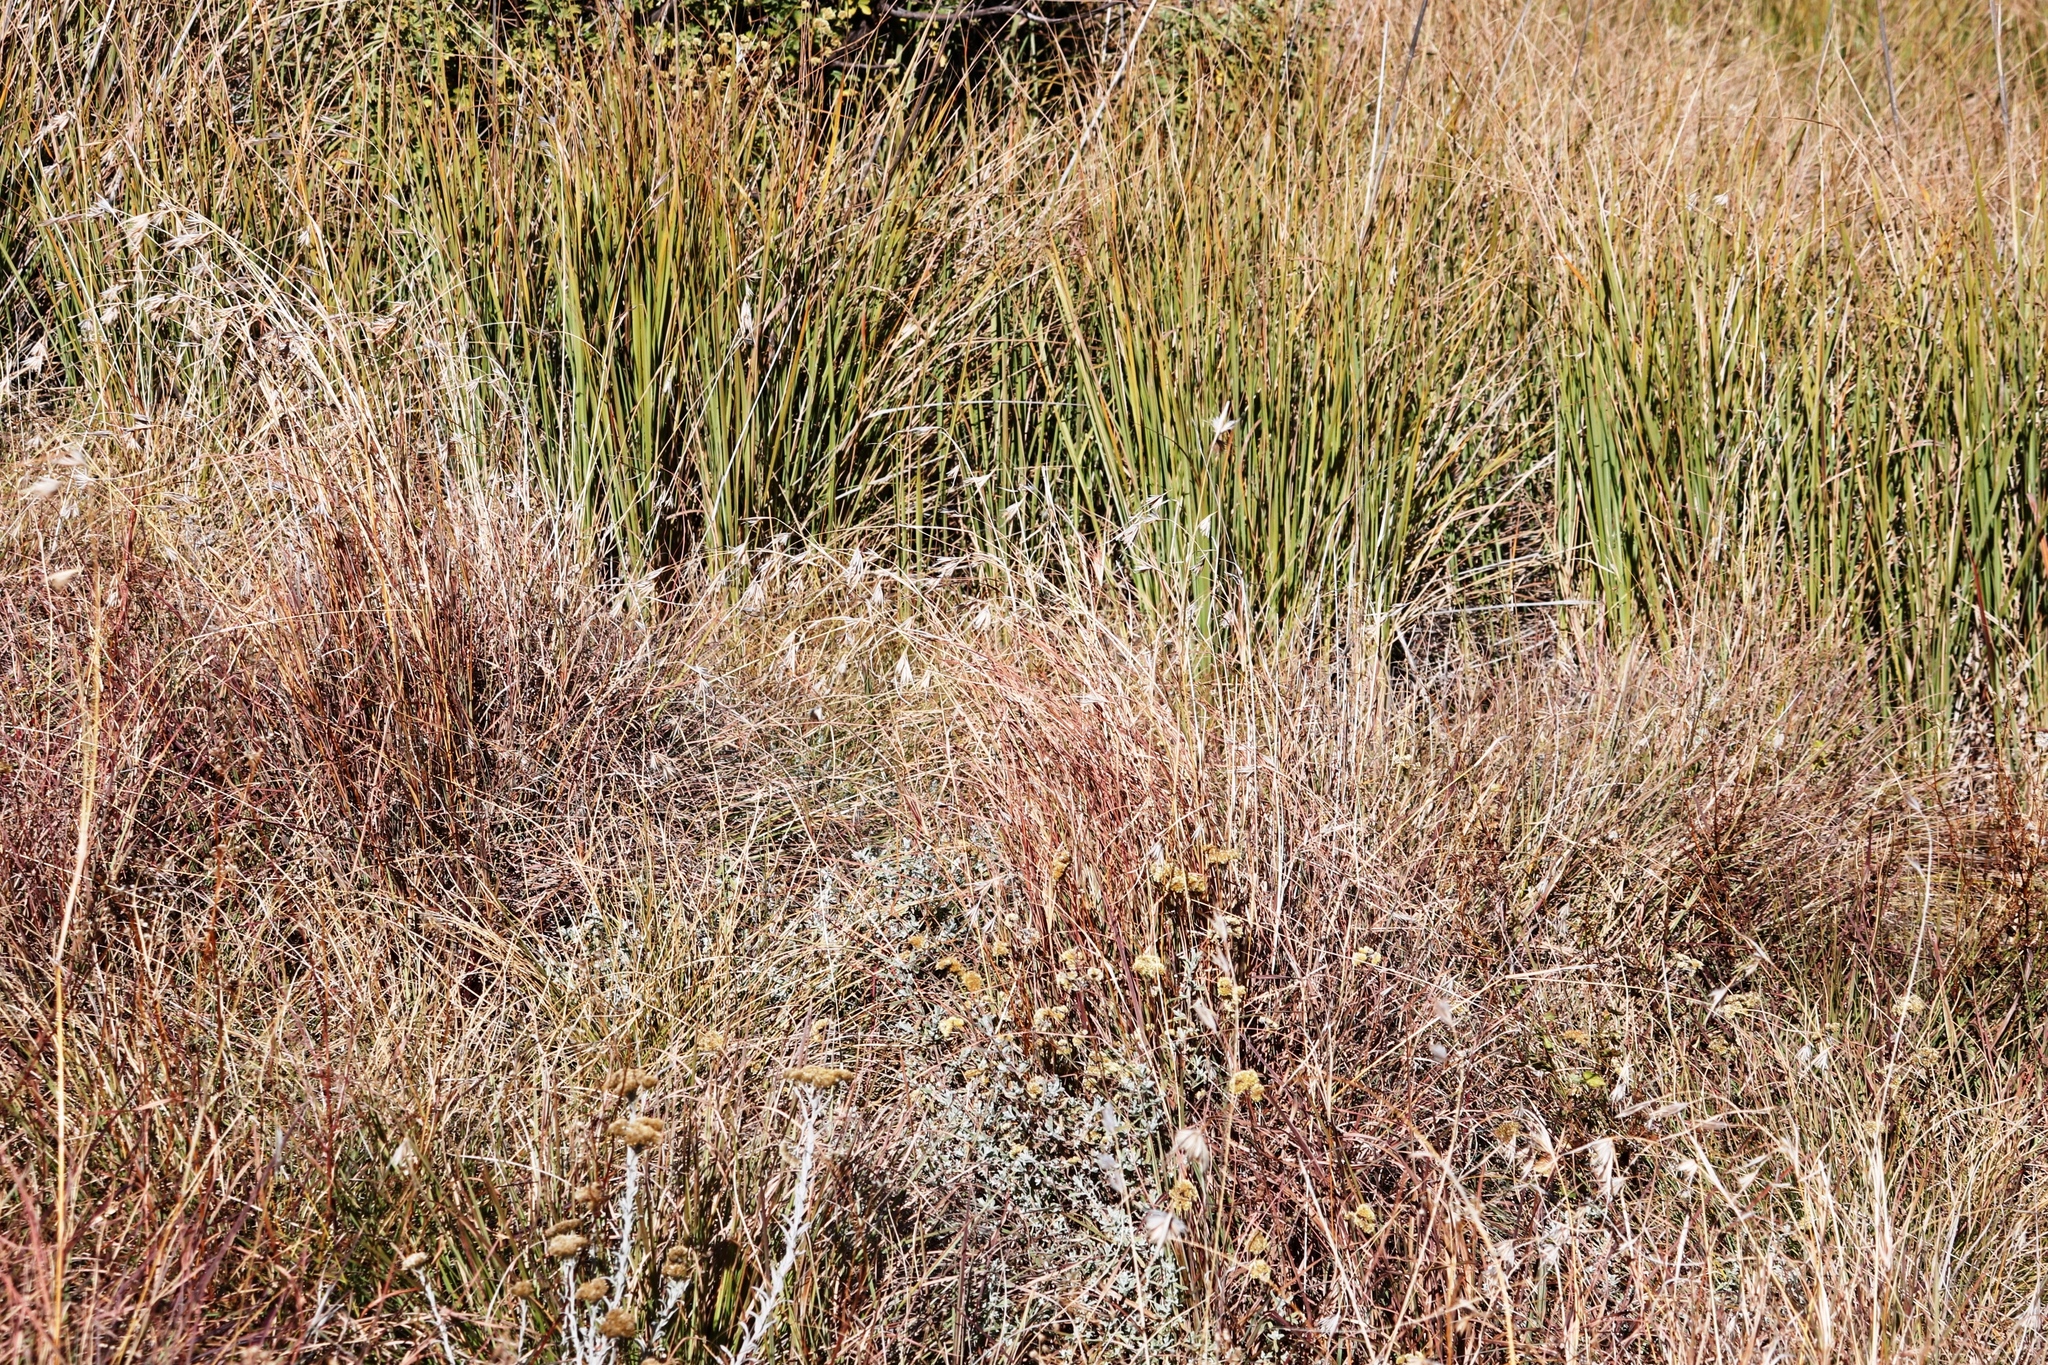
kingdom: Plantae
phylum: Tracheophyta
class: Liliopsida
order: Poales
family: Poaceae
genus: Themeda
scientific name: Themeda triandra
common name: Kangaroo grass
